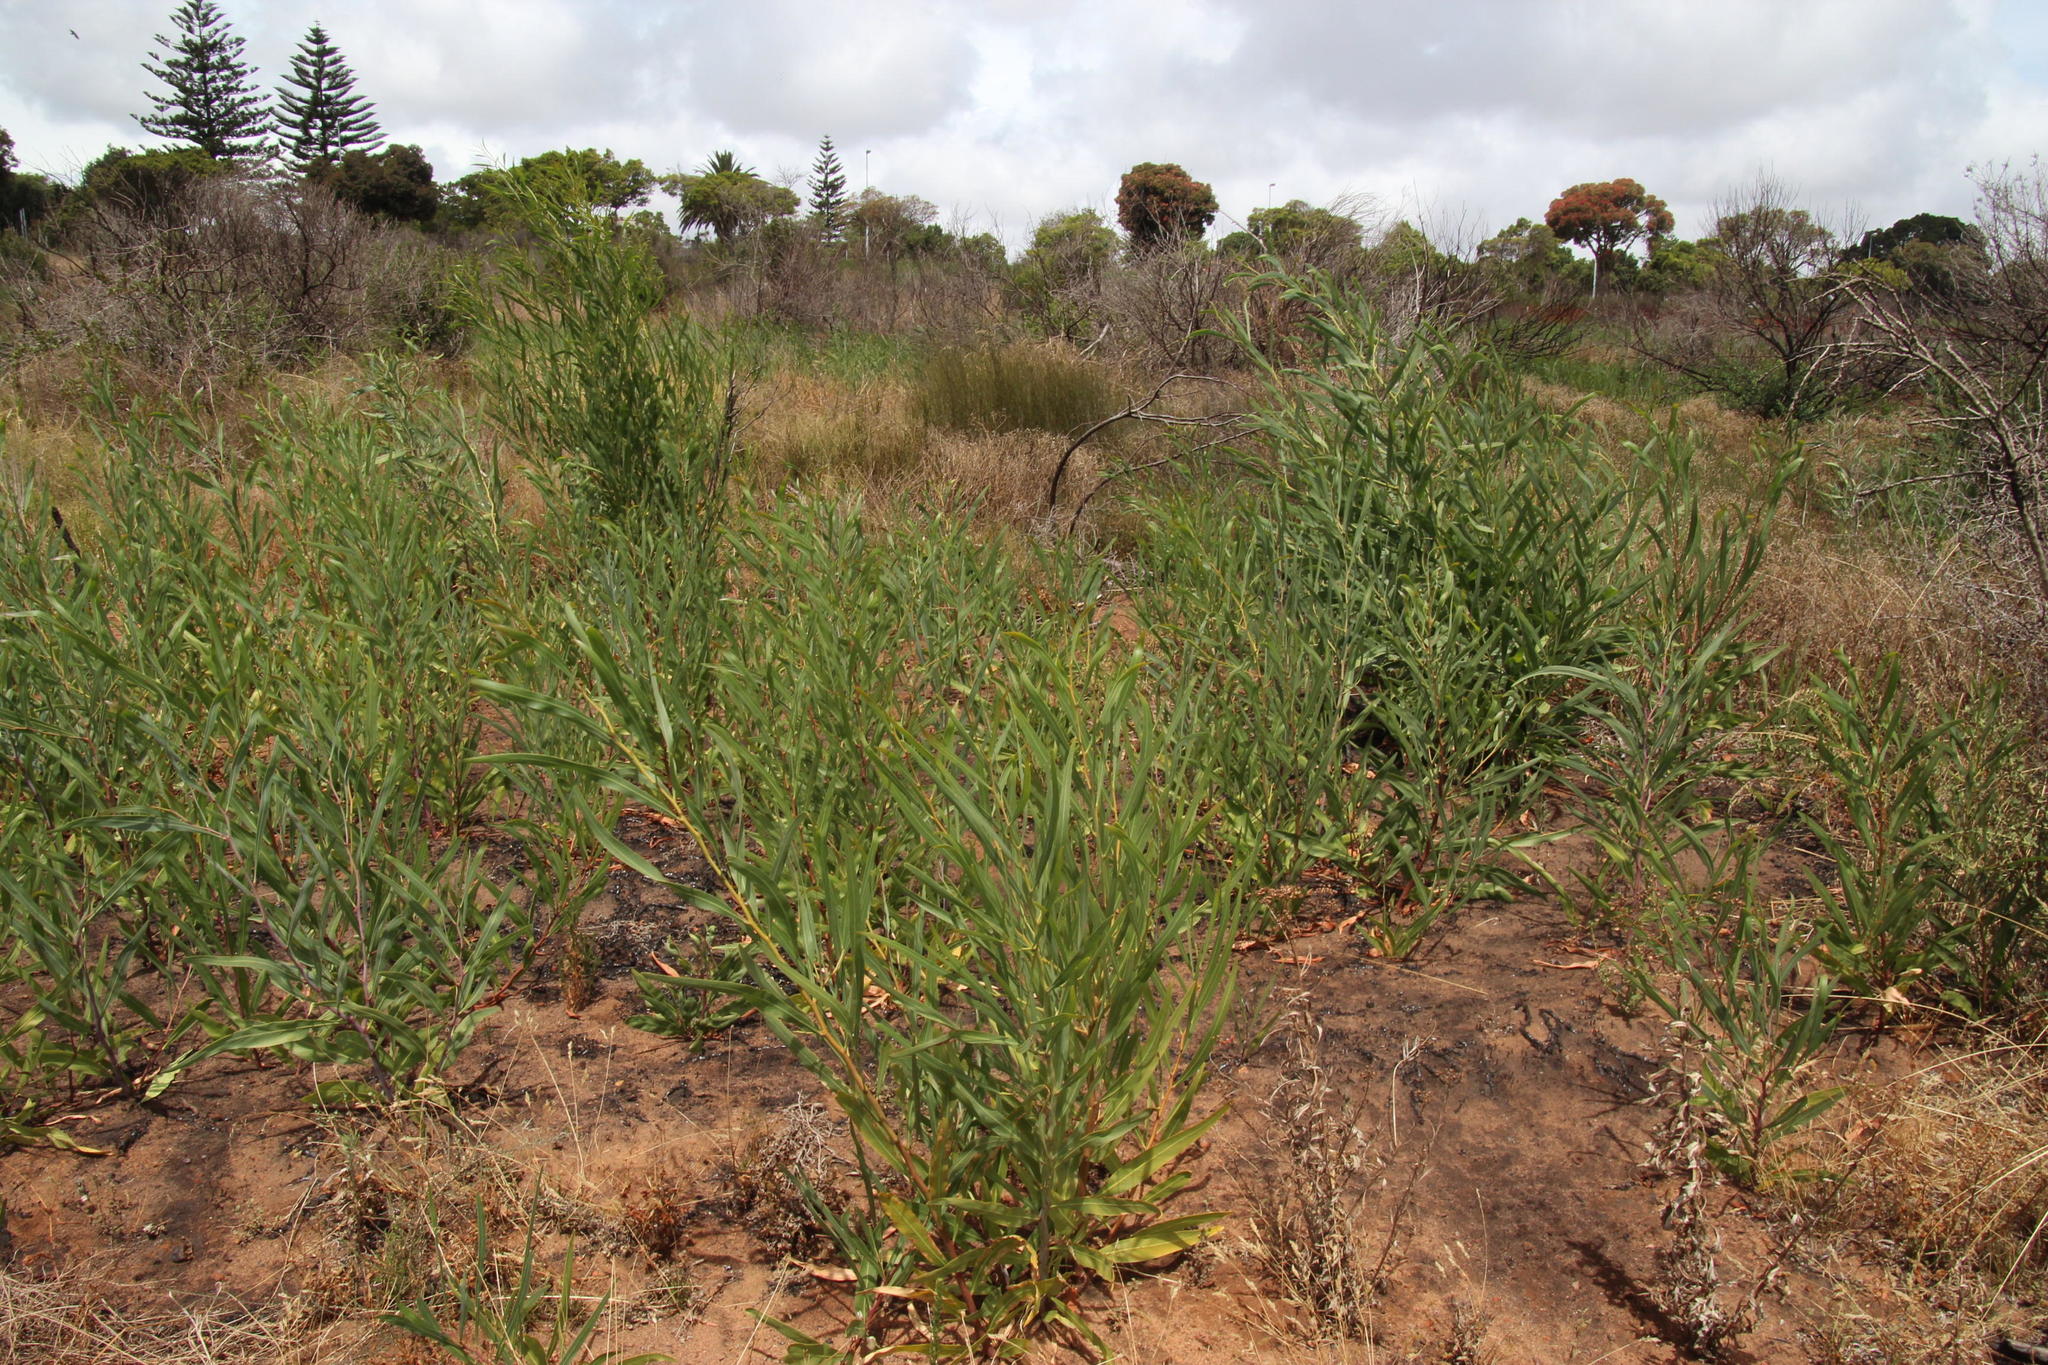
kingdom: Plantae
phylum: Tracheophyta
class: Magnoliopsida
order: Fabales
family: Fabaceae
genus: Acacia
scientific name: Acacia saligna
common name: Orange wattle
